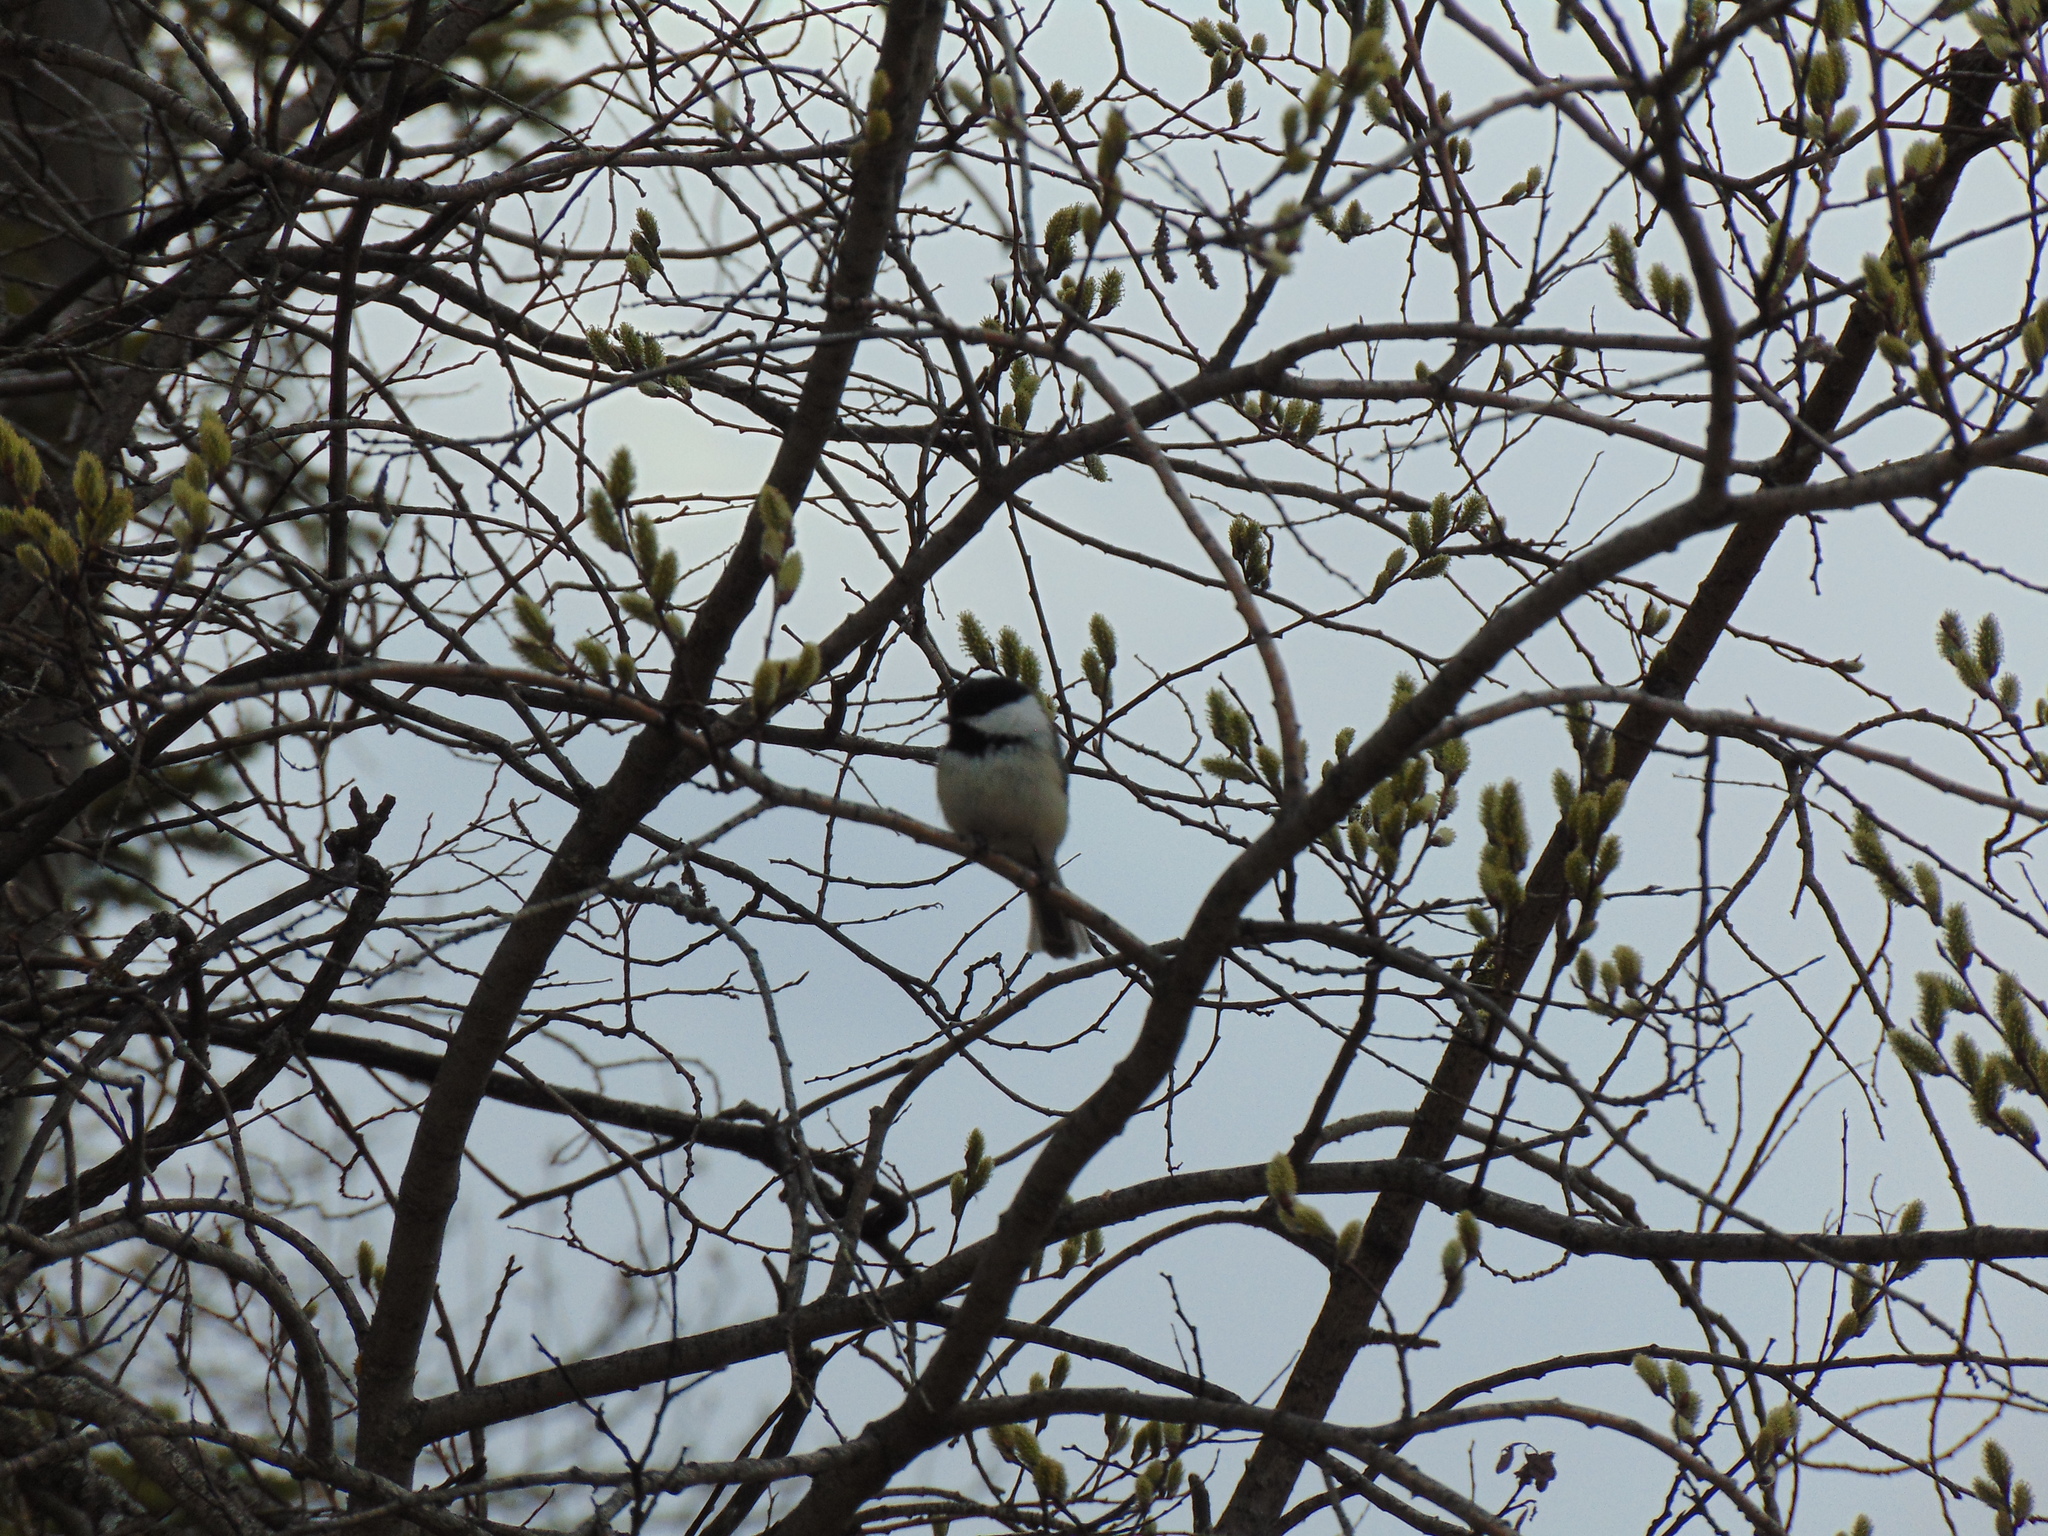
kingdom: Animalia
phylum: Chordata
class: Aves
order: Passeriformes
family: Paridae
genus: Poecile
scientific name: Poecile atricapillus
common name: Black-capped chickadee
